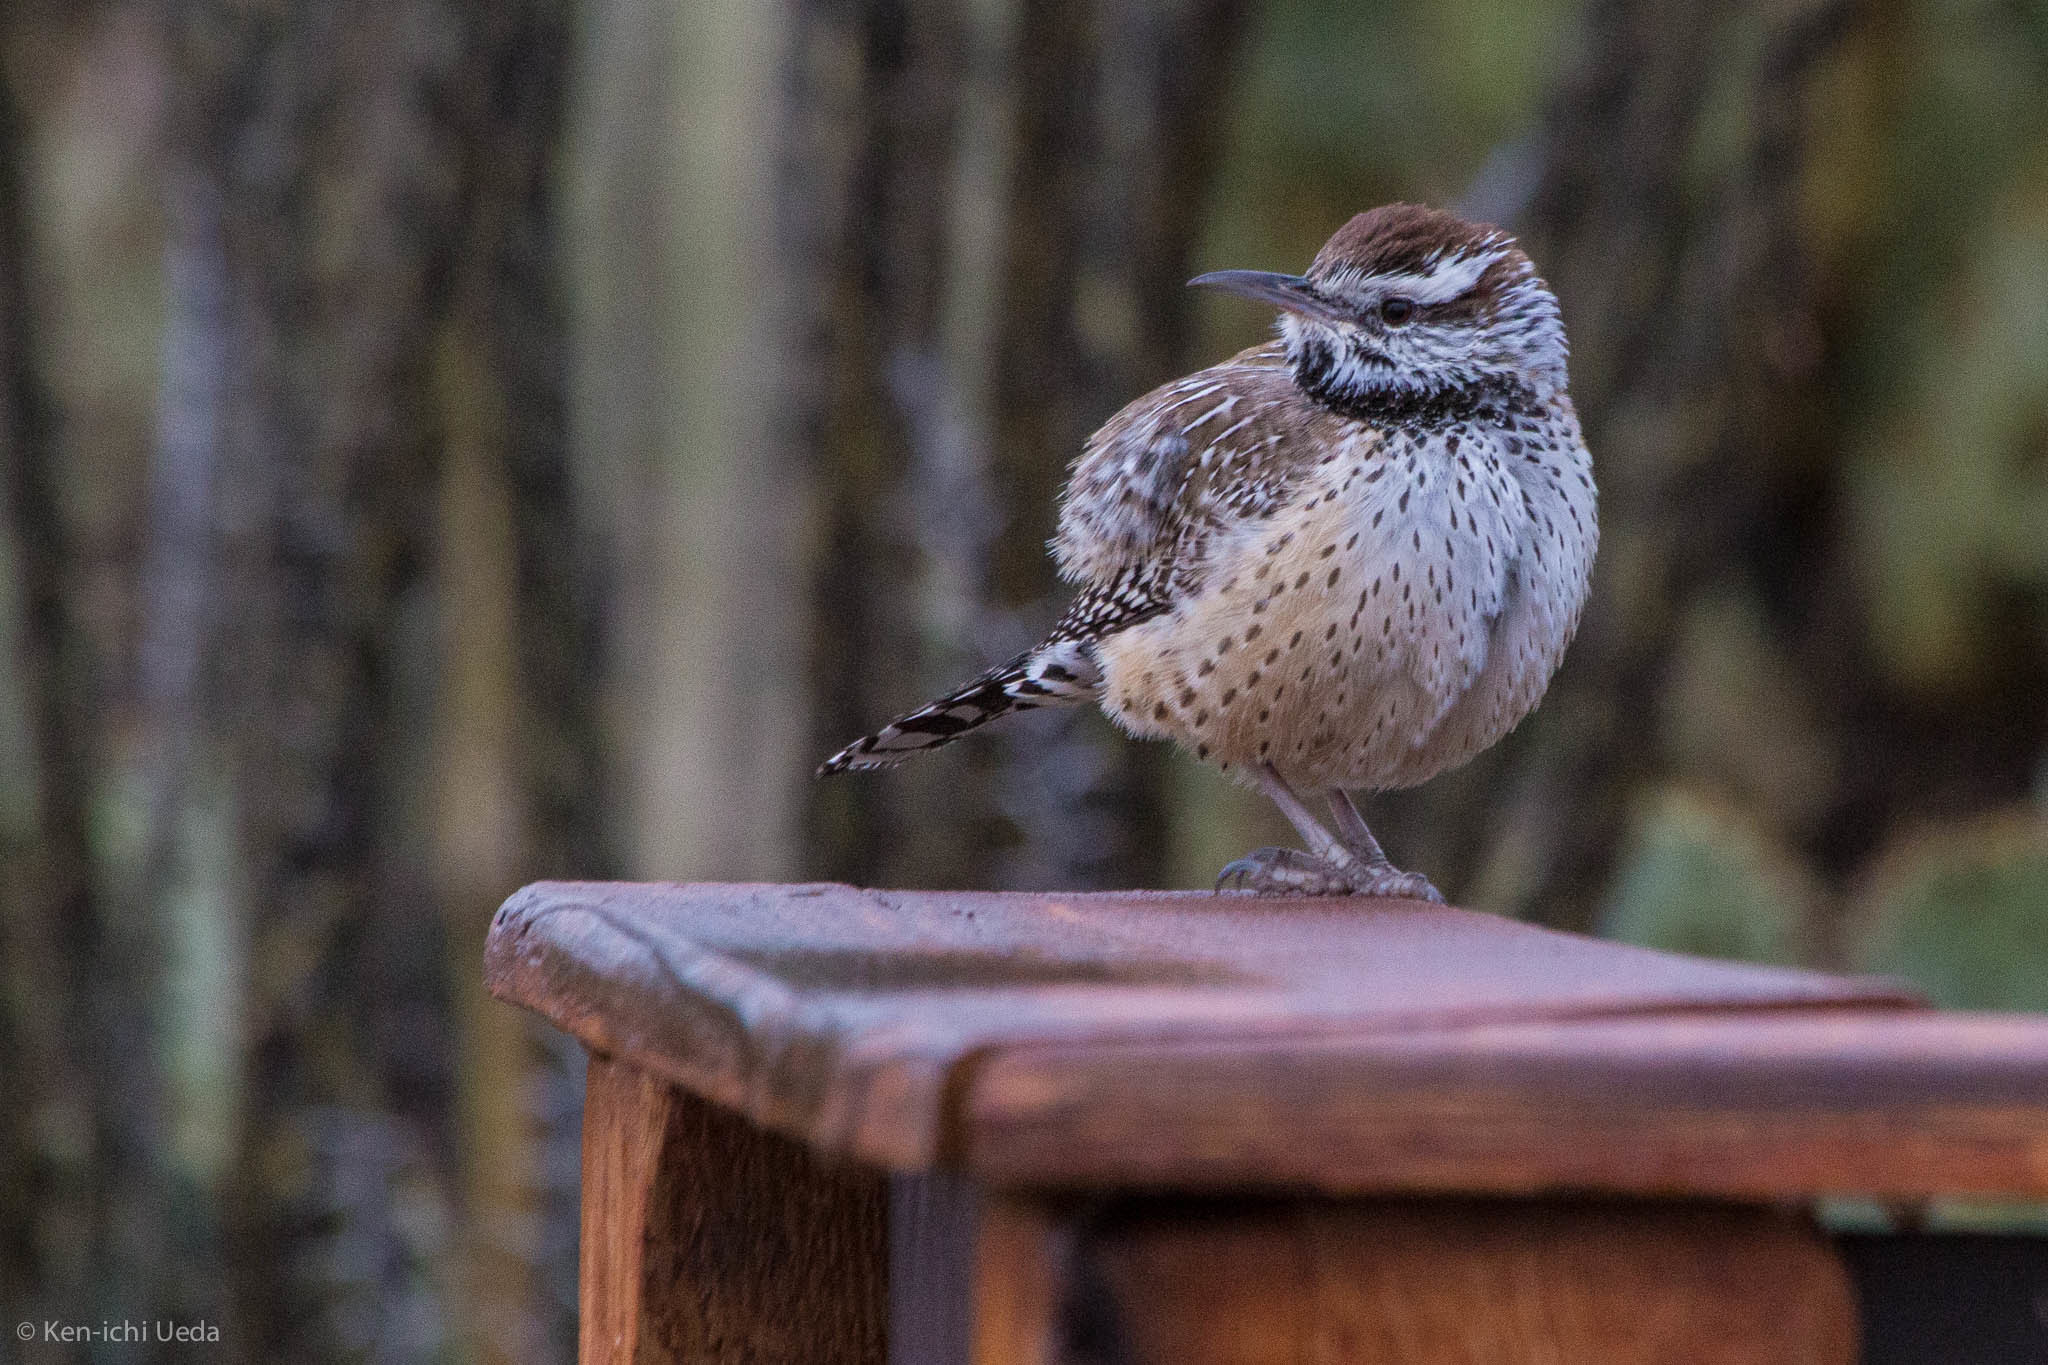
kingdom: Animalia
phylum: Chordata
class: Aves
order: Passeriformes
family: Troglodytidae
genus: Campylorhynchus
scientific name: Campylorhynchus brunneicapillus
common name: Cactus wren
